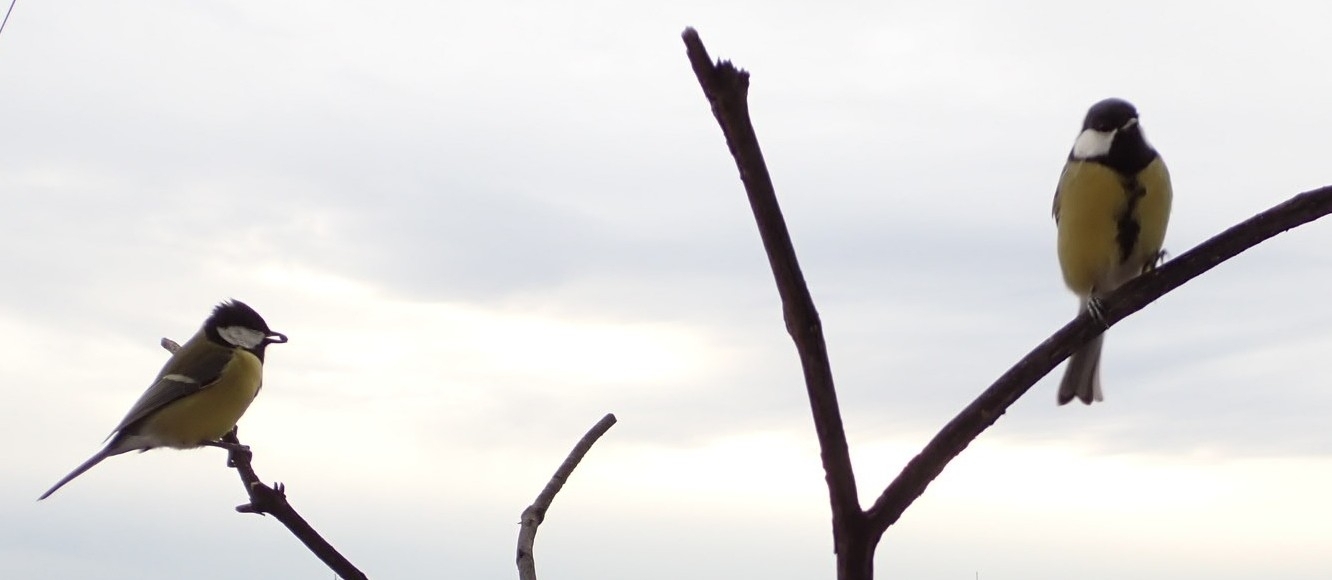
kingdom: Animalia
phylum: Chordata
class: Aves
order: Passeriformes
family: Paridae
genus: Parus
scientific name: Parus major
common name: Great tit
